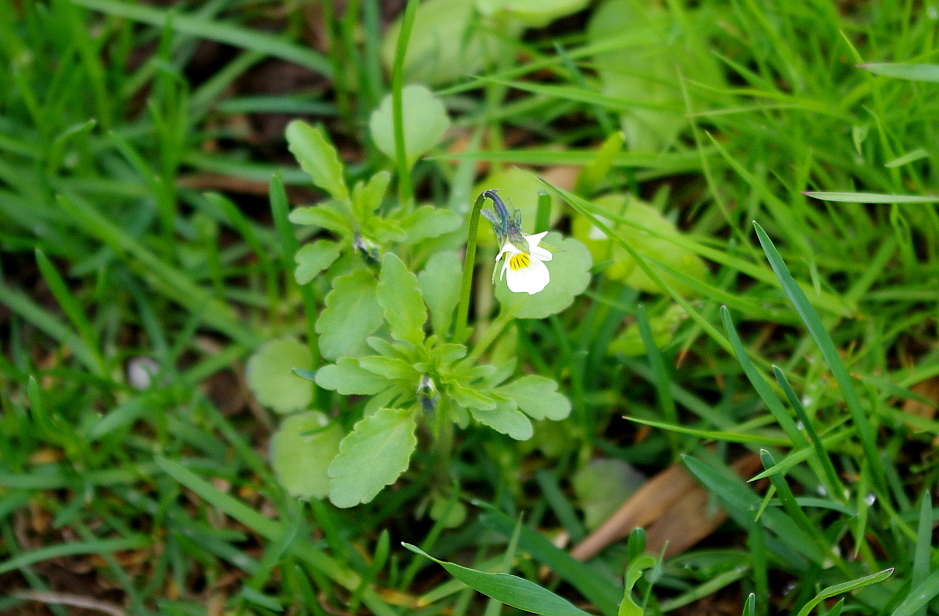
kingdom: Plantae
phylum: Tracheophyta
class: Magnoliopsida
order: Malpighiales
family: Violaceae
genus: Viola
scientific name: Viola arvensis
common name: Field pansy
